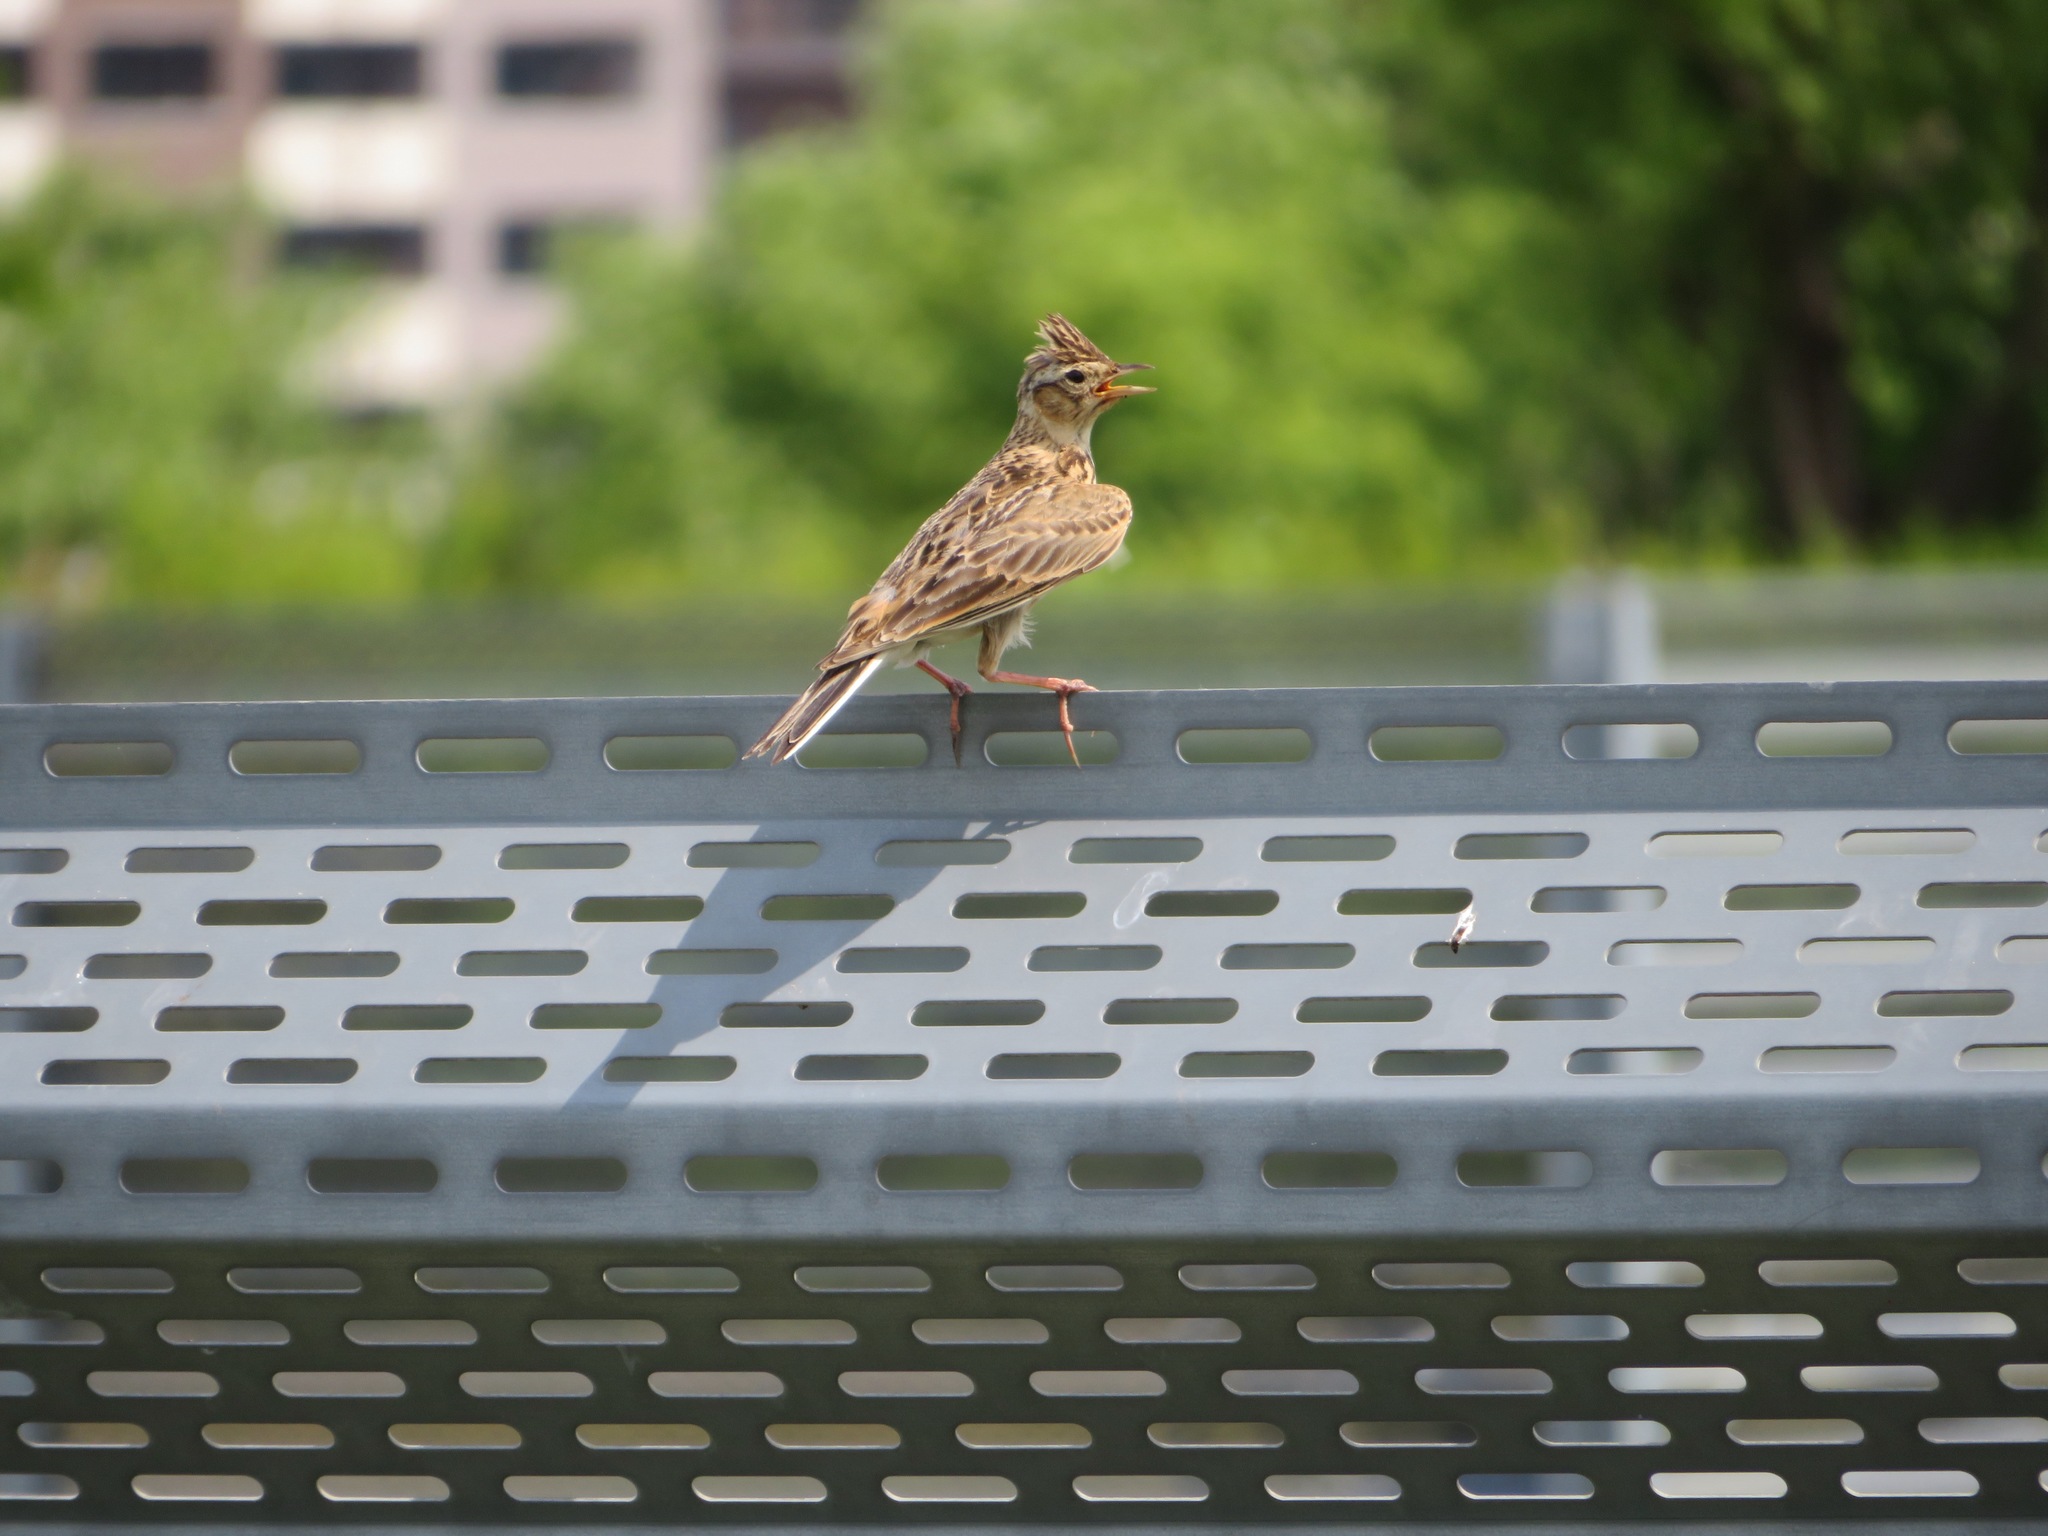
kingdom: Animalia
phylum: Chordata
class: Aves
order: Passeriformes
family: Alaudidae
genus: Alauda
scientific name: Alauda arvensis
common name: Eurasian skylark
